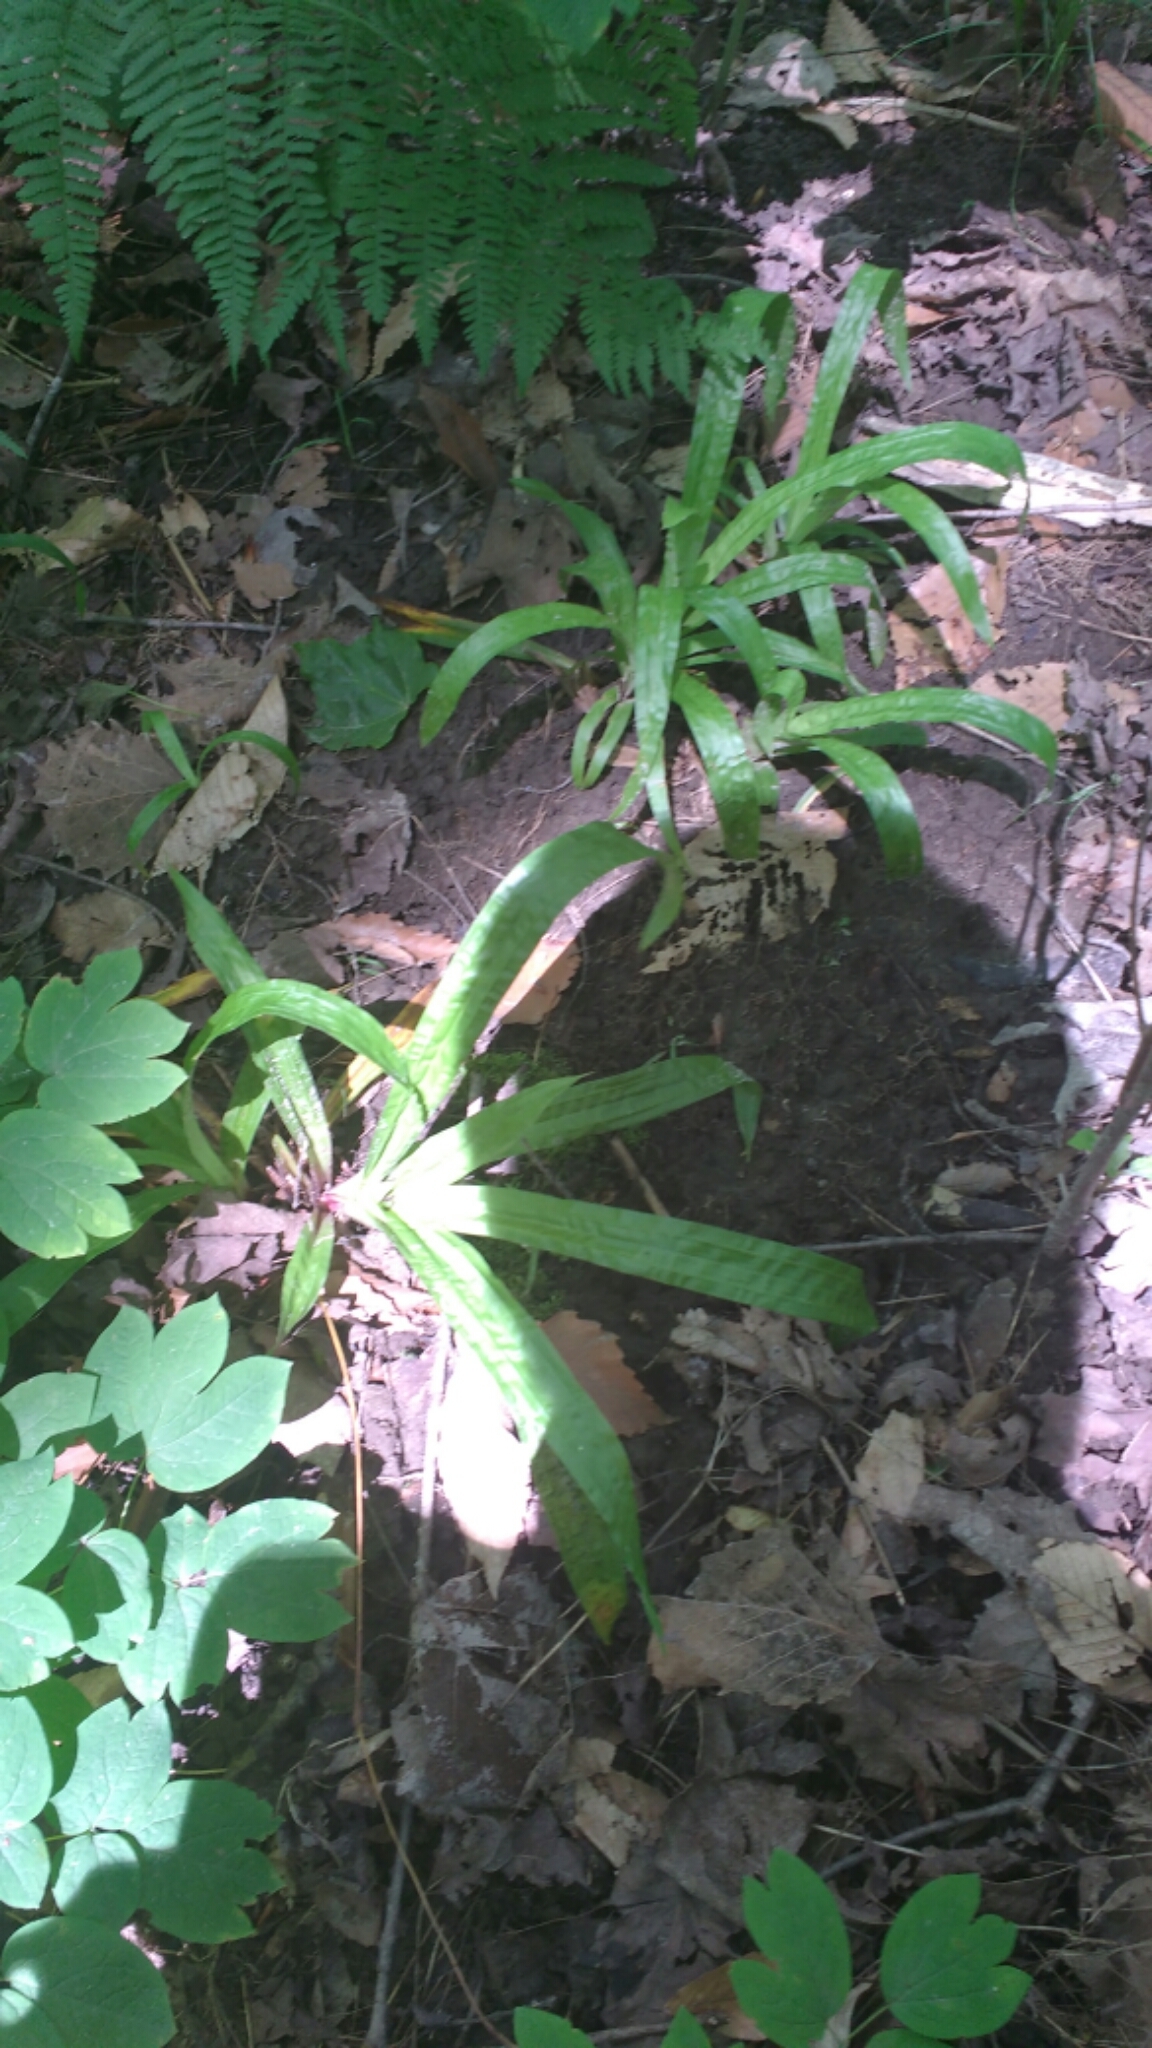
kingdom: Plantae
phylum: Tracheophyta
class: Liliopsida
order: Poales
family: Cyperaceae
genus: Carex
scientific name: Carex plantaginea
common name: Plantain-leaved sedge
